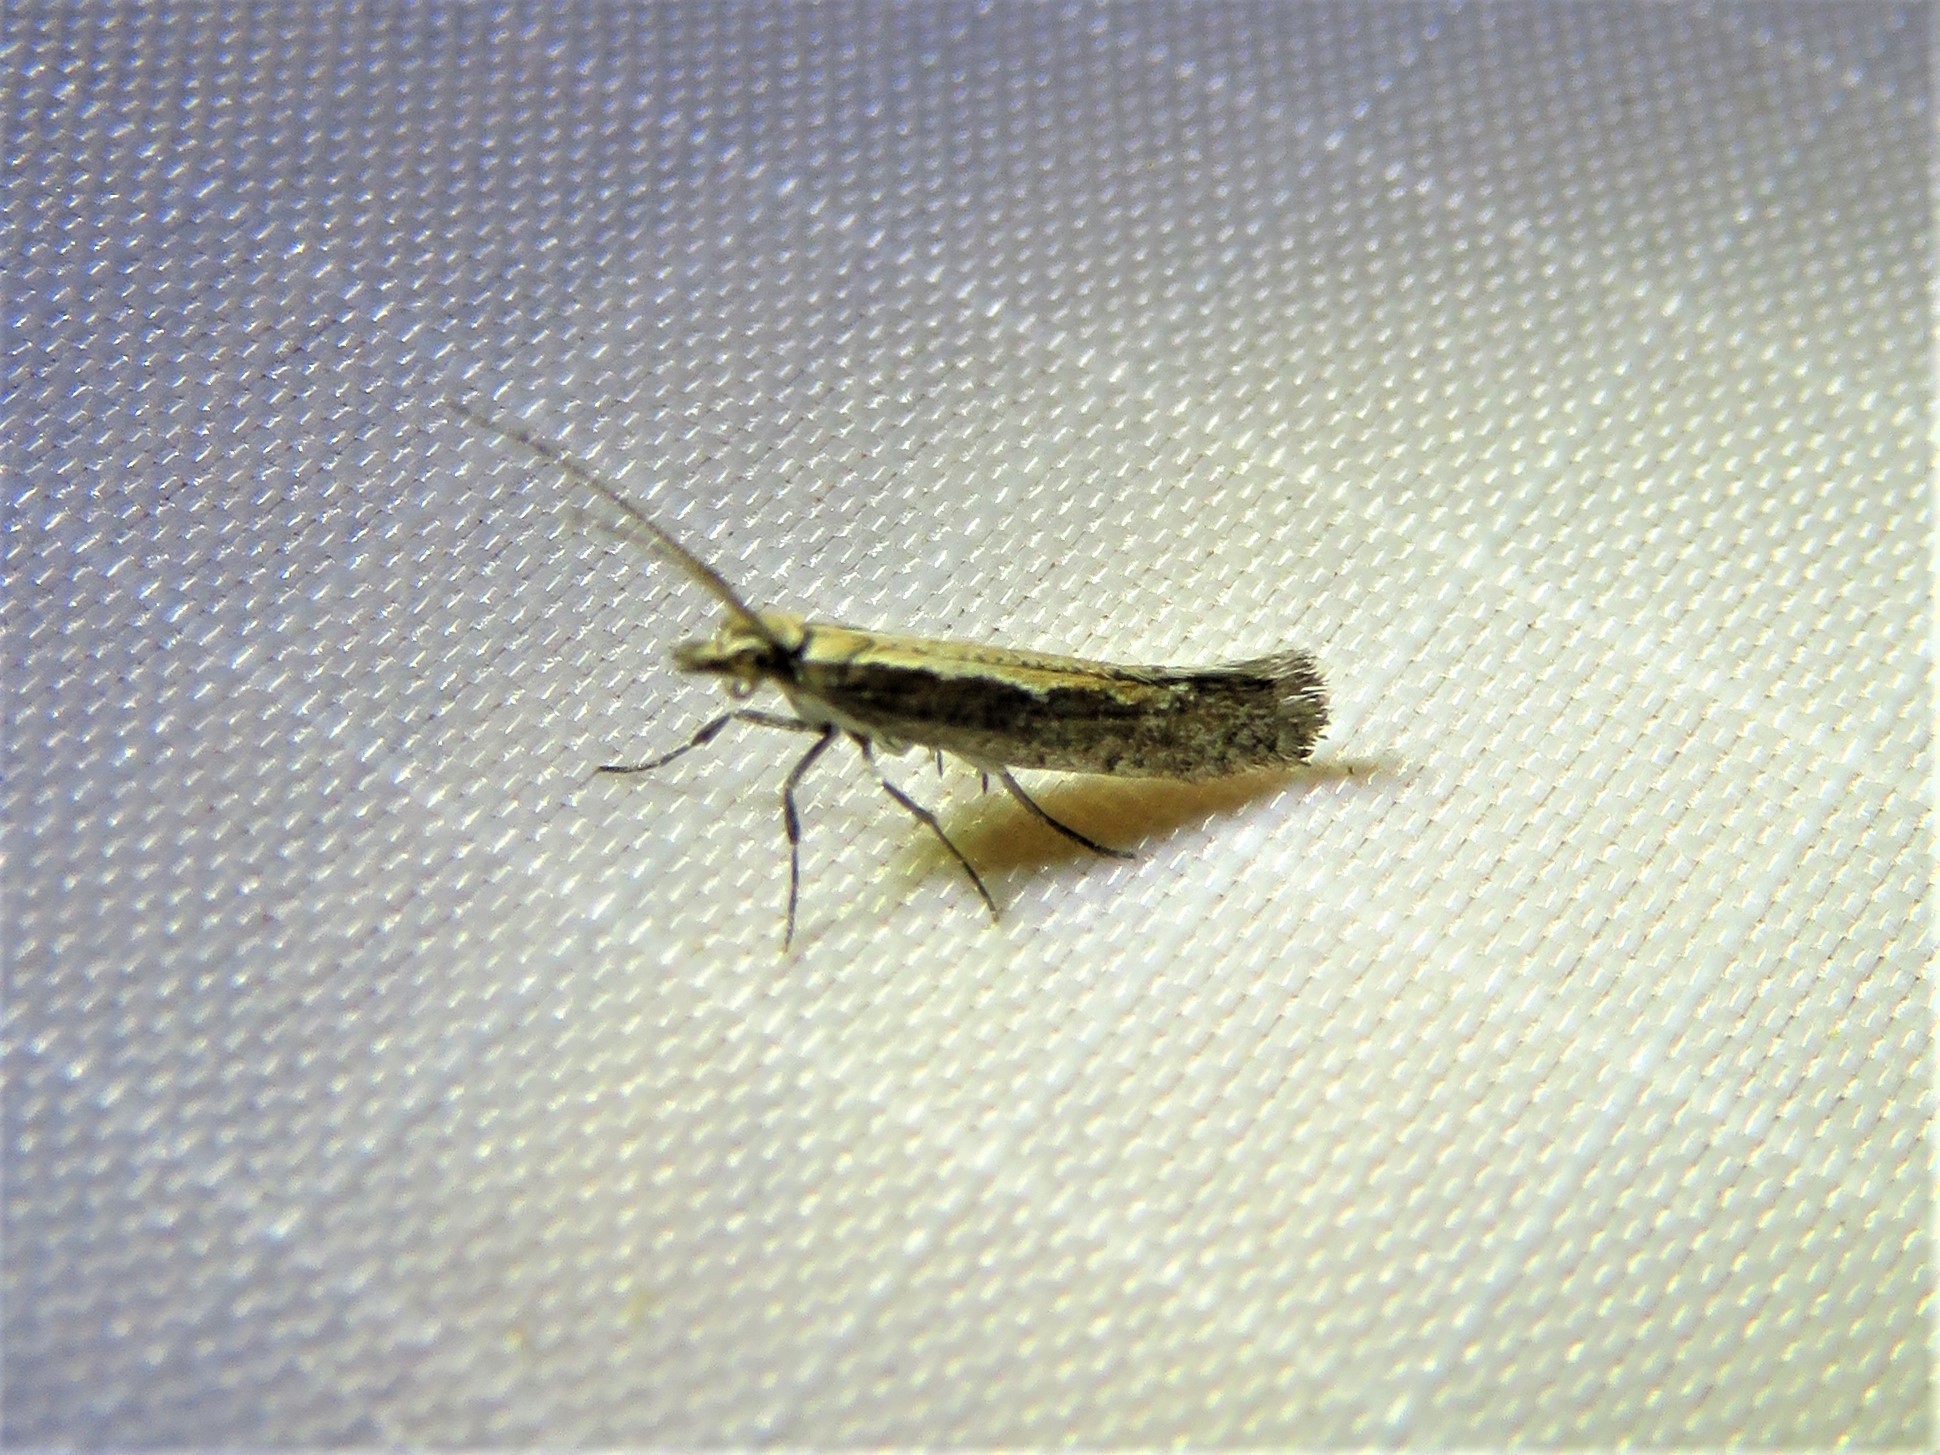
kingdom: Animalia
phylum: Arthropoda
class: Insecta
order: Lepidoptera
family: Plutellidae
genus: Plutella
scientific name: Plutella xylostella
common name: Diamond-back moth
